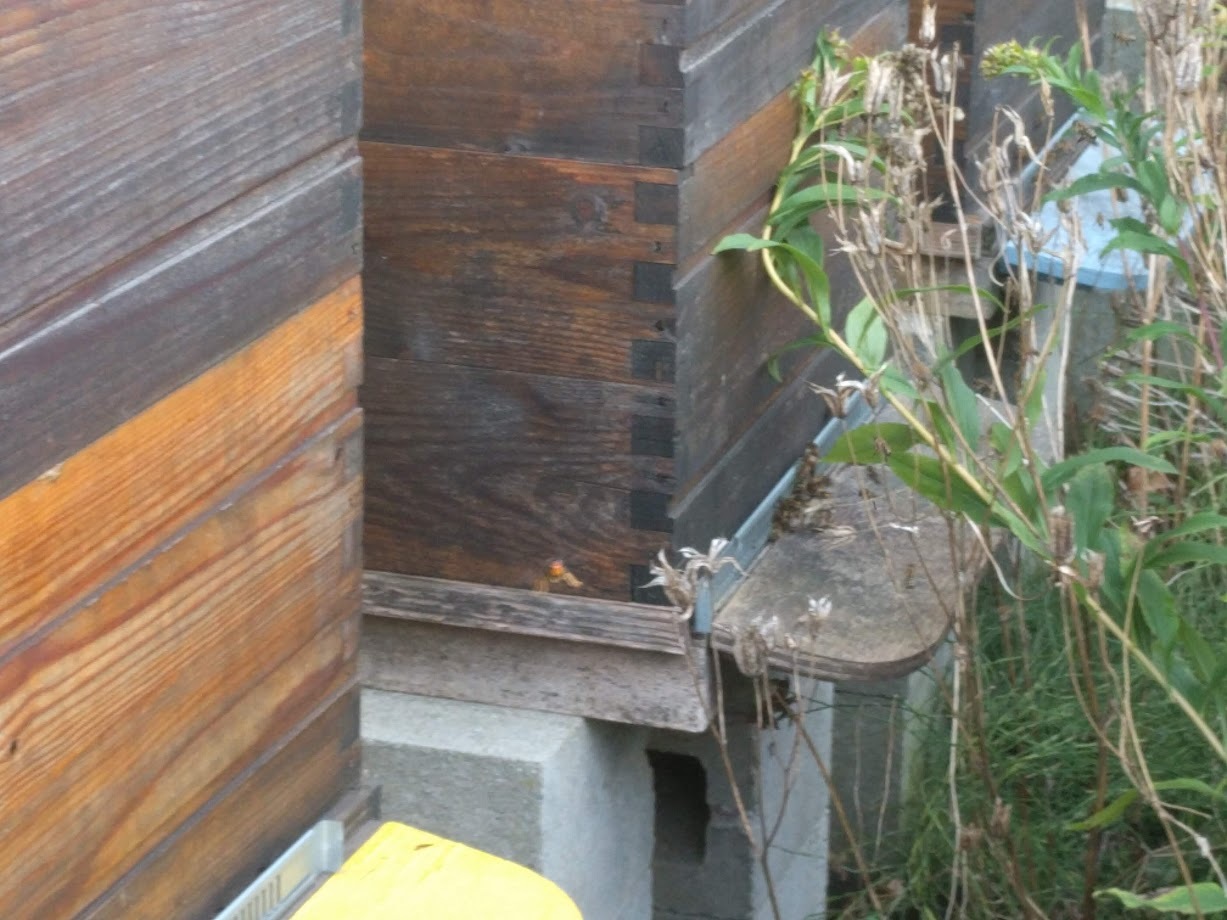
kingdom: Animalia
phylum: Arthropoda
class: Insecta
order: Hymenoptera
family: Vespidae
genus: Vespa
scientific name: Vespa velutina
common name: Asian hornet
